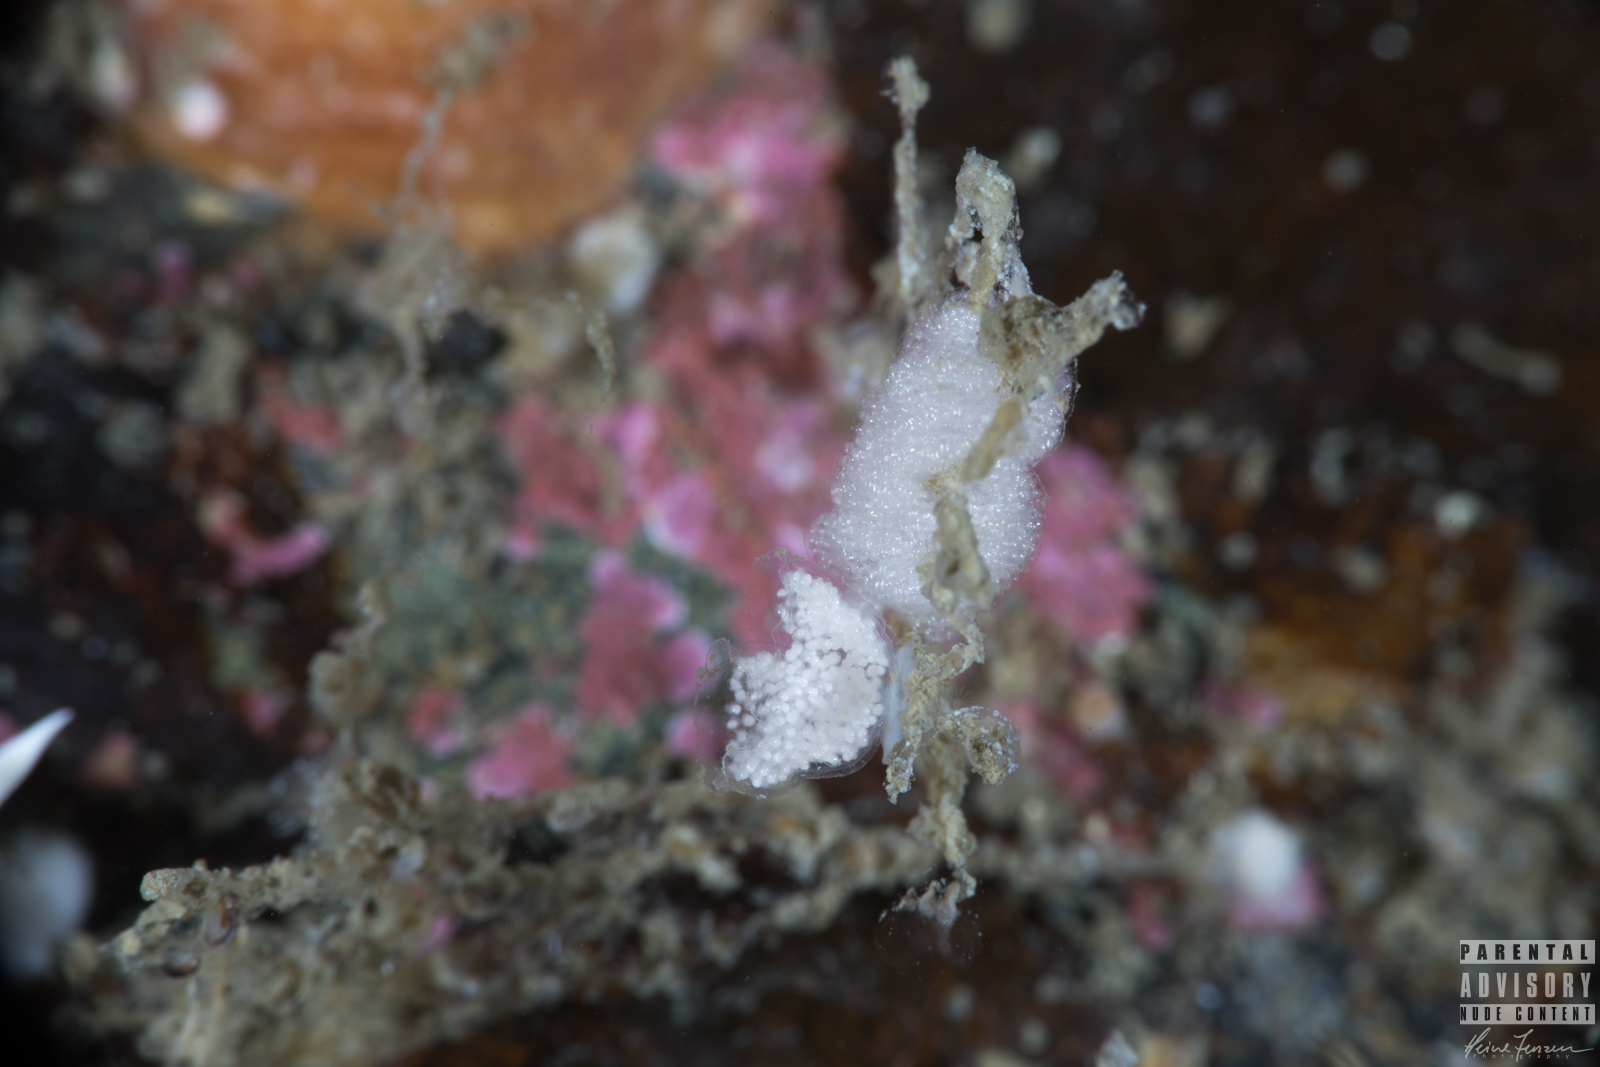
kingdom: Animalia
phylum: Mollusca
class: Gastropoda
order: Nudibranchia
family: Eubranchidae
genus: Eubranchus
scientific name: Eubranchus tricolor
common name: Painted balloon aeolis
